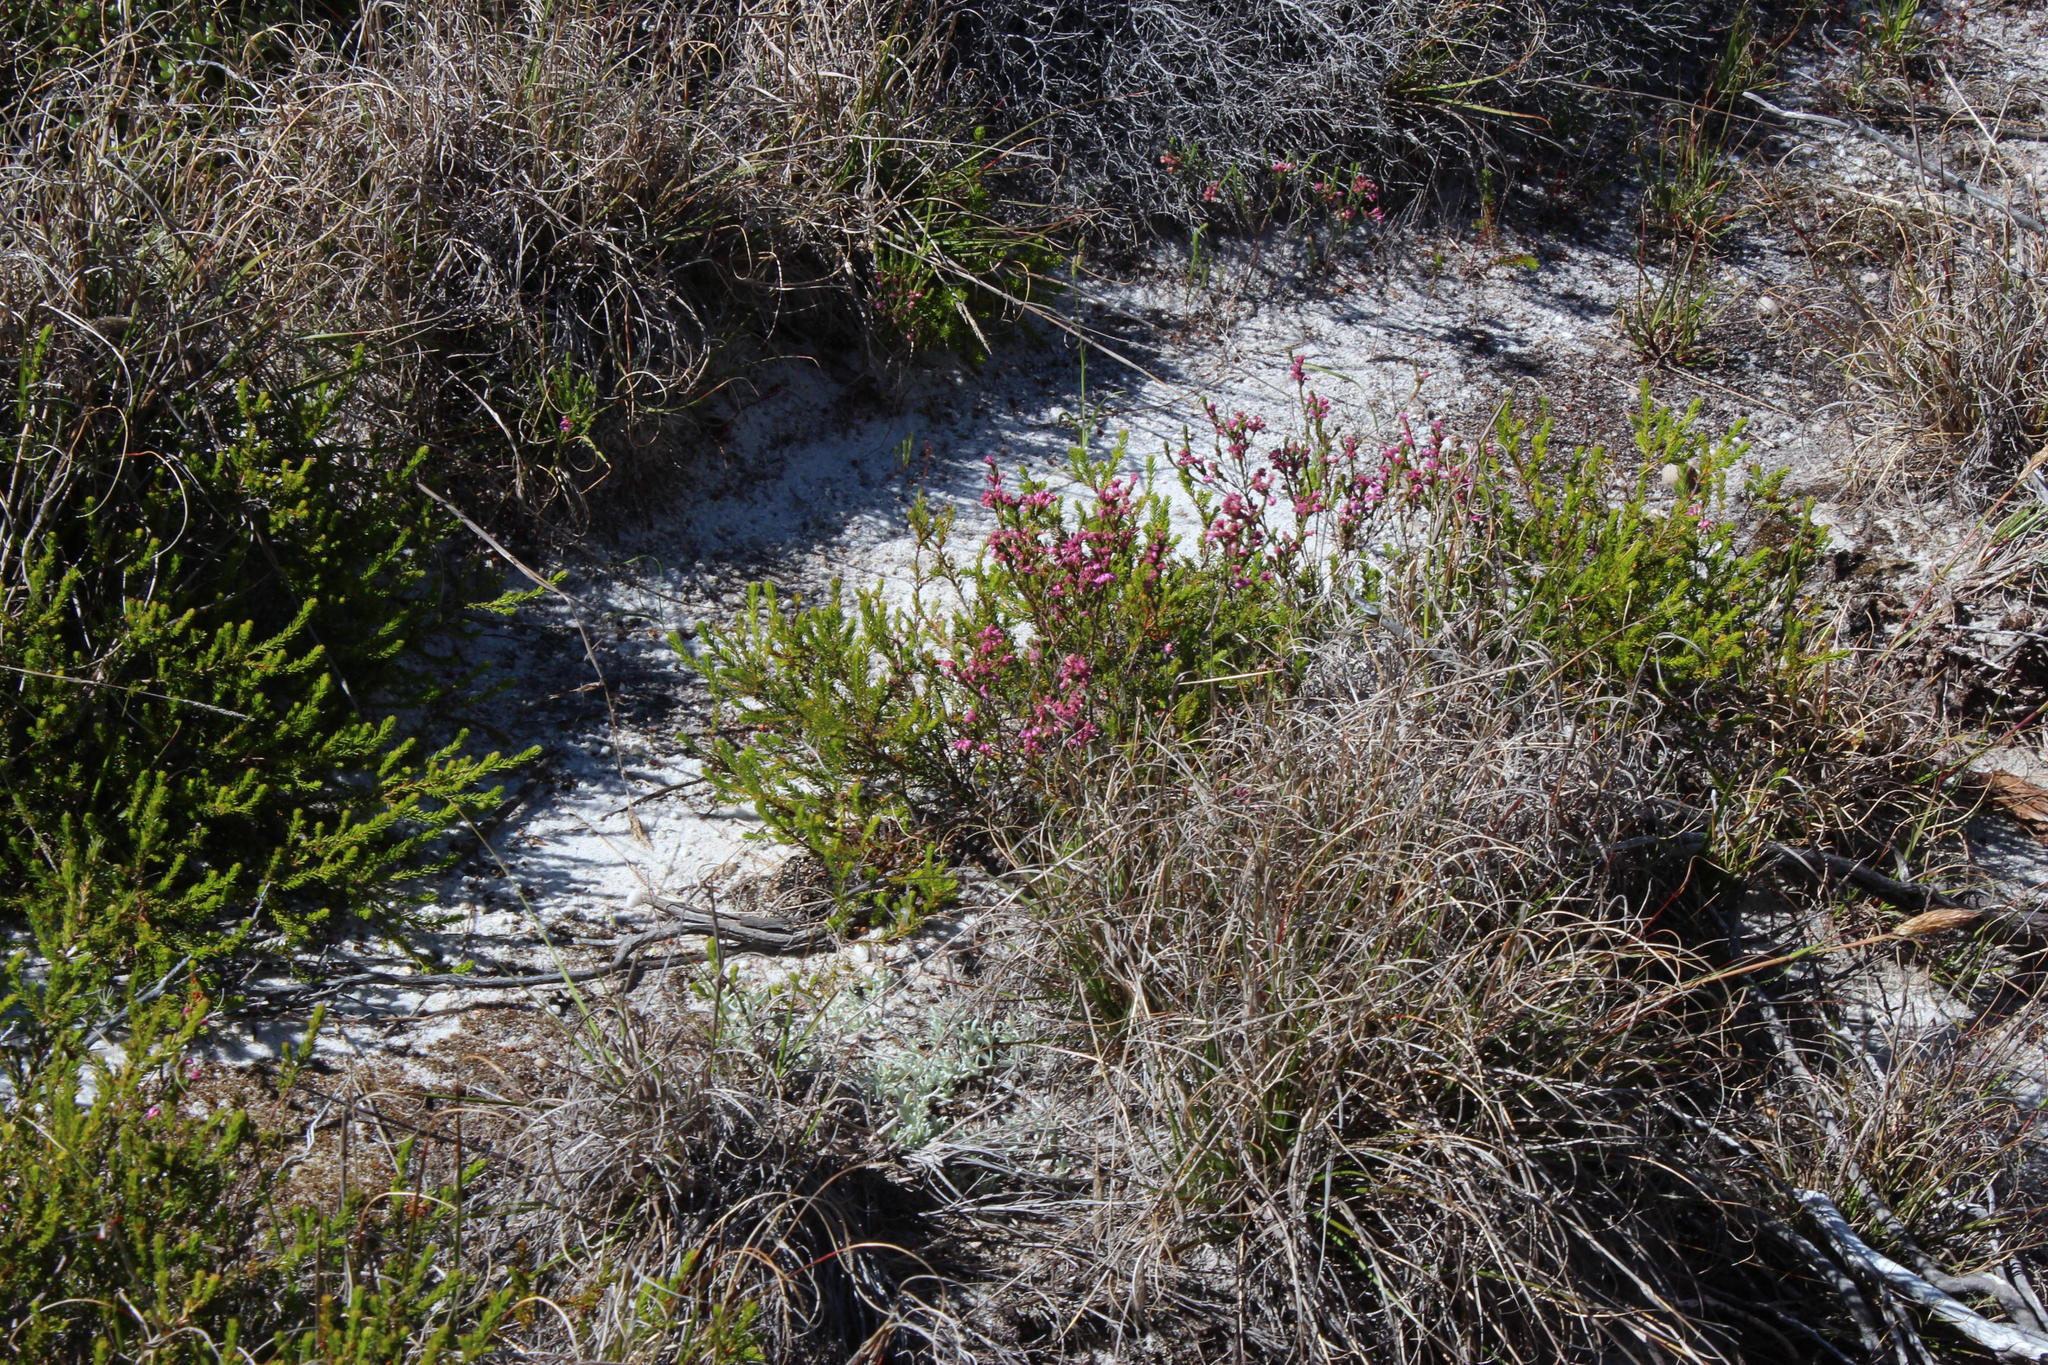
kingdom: Plantae
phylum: Tracheophyta
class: Magnoliopsida
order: Ericales
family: Ericaceae
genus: Erica
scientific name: Erica corifolia
